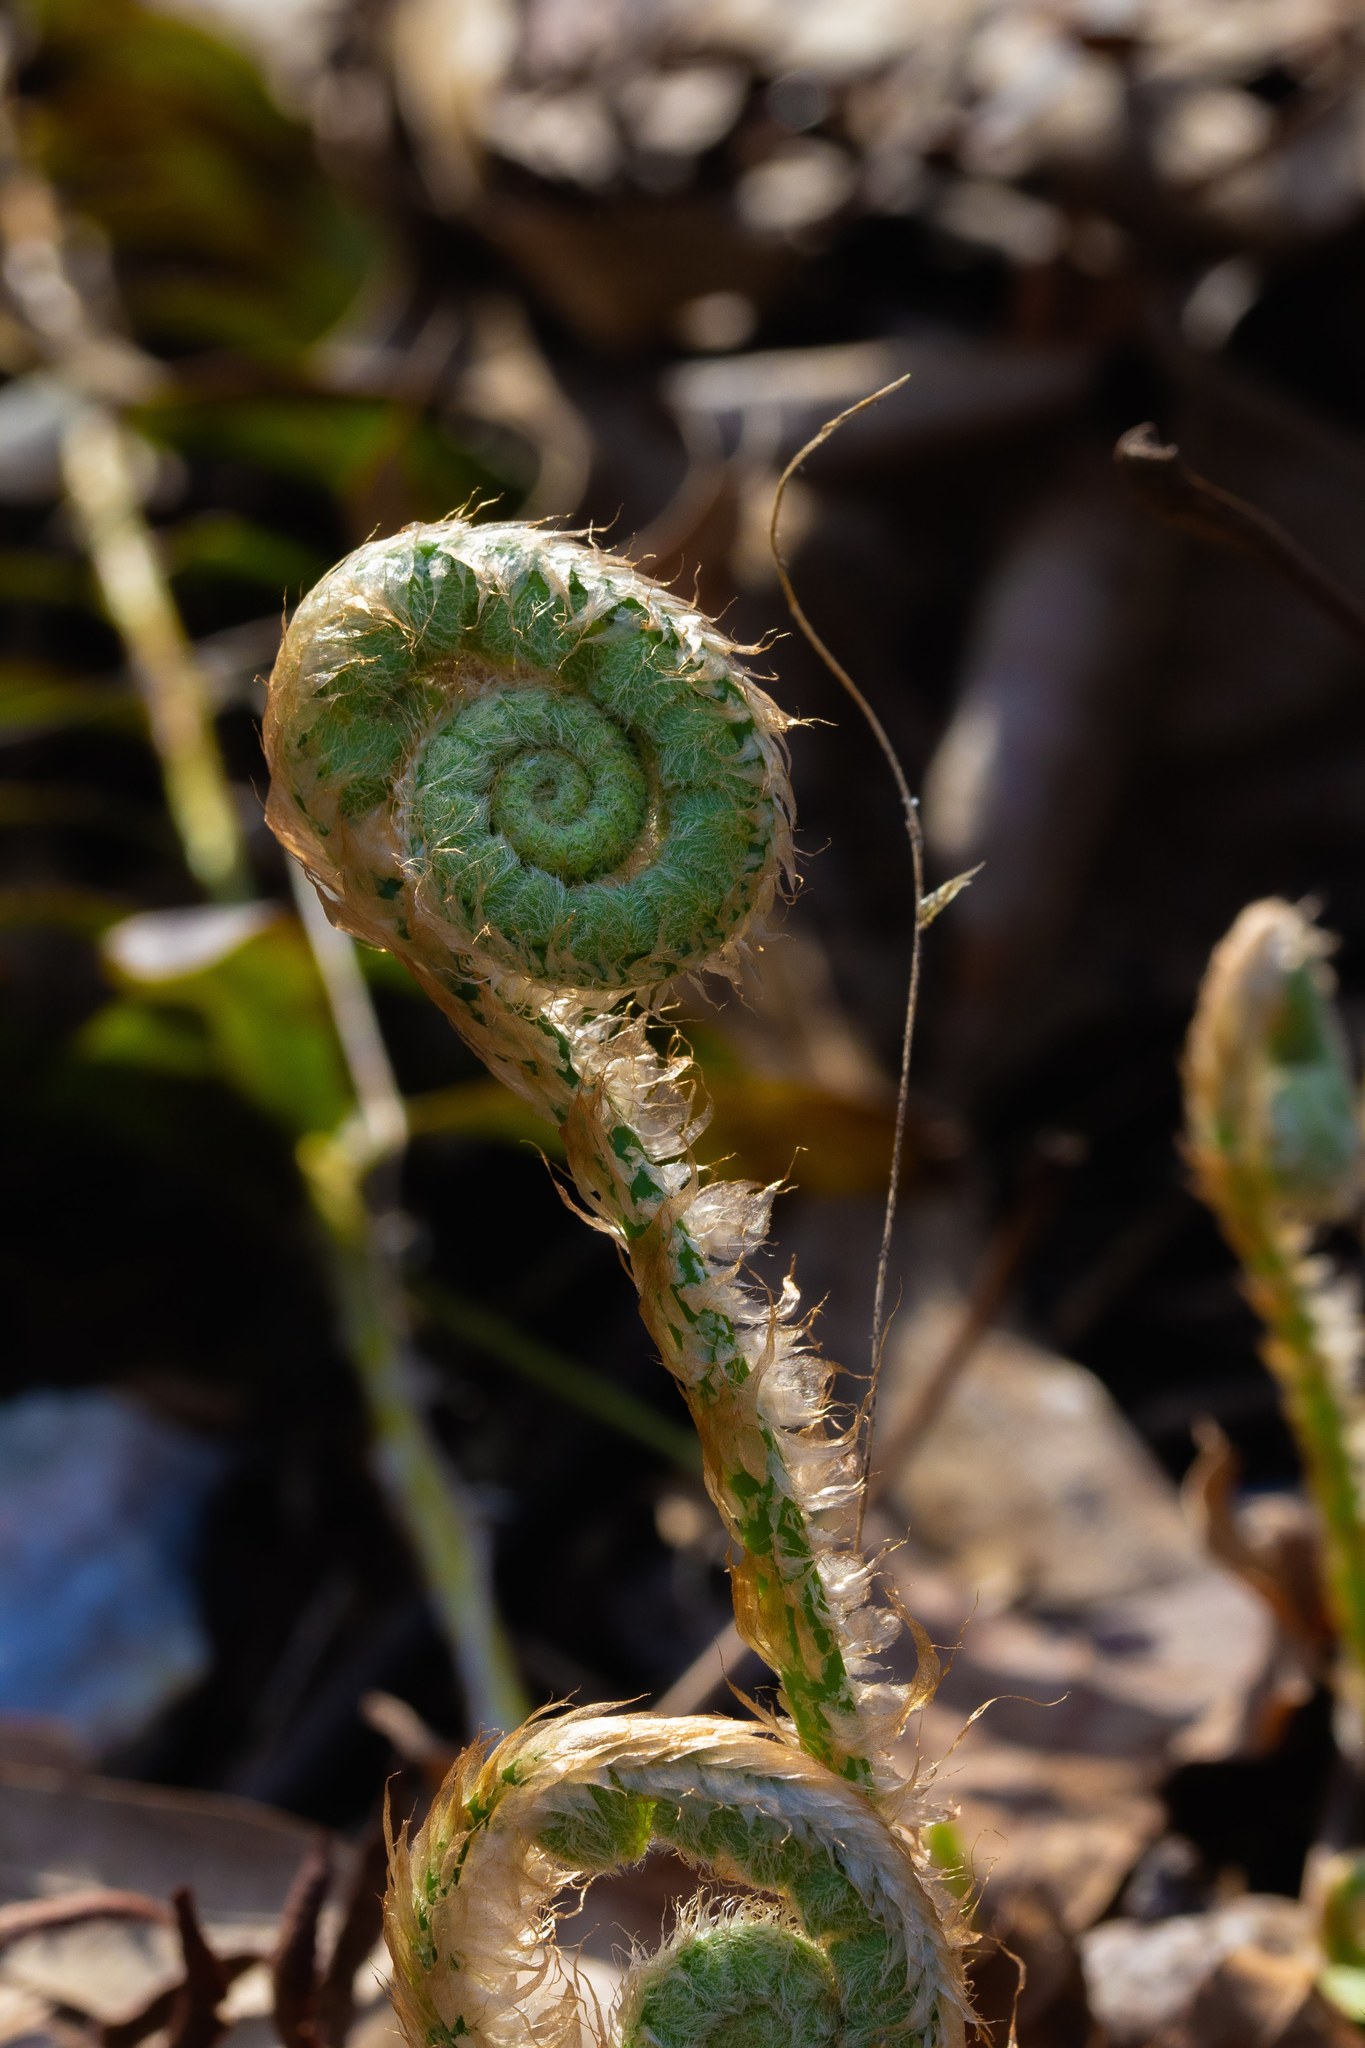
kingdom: Plantae
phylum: Tracheophyta
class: Polypodiopsida
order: Polypodiales
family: Dryopteridaceae
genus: Polystichum
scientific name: Polystichum acrostichoides
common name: Christmas fern
